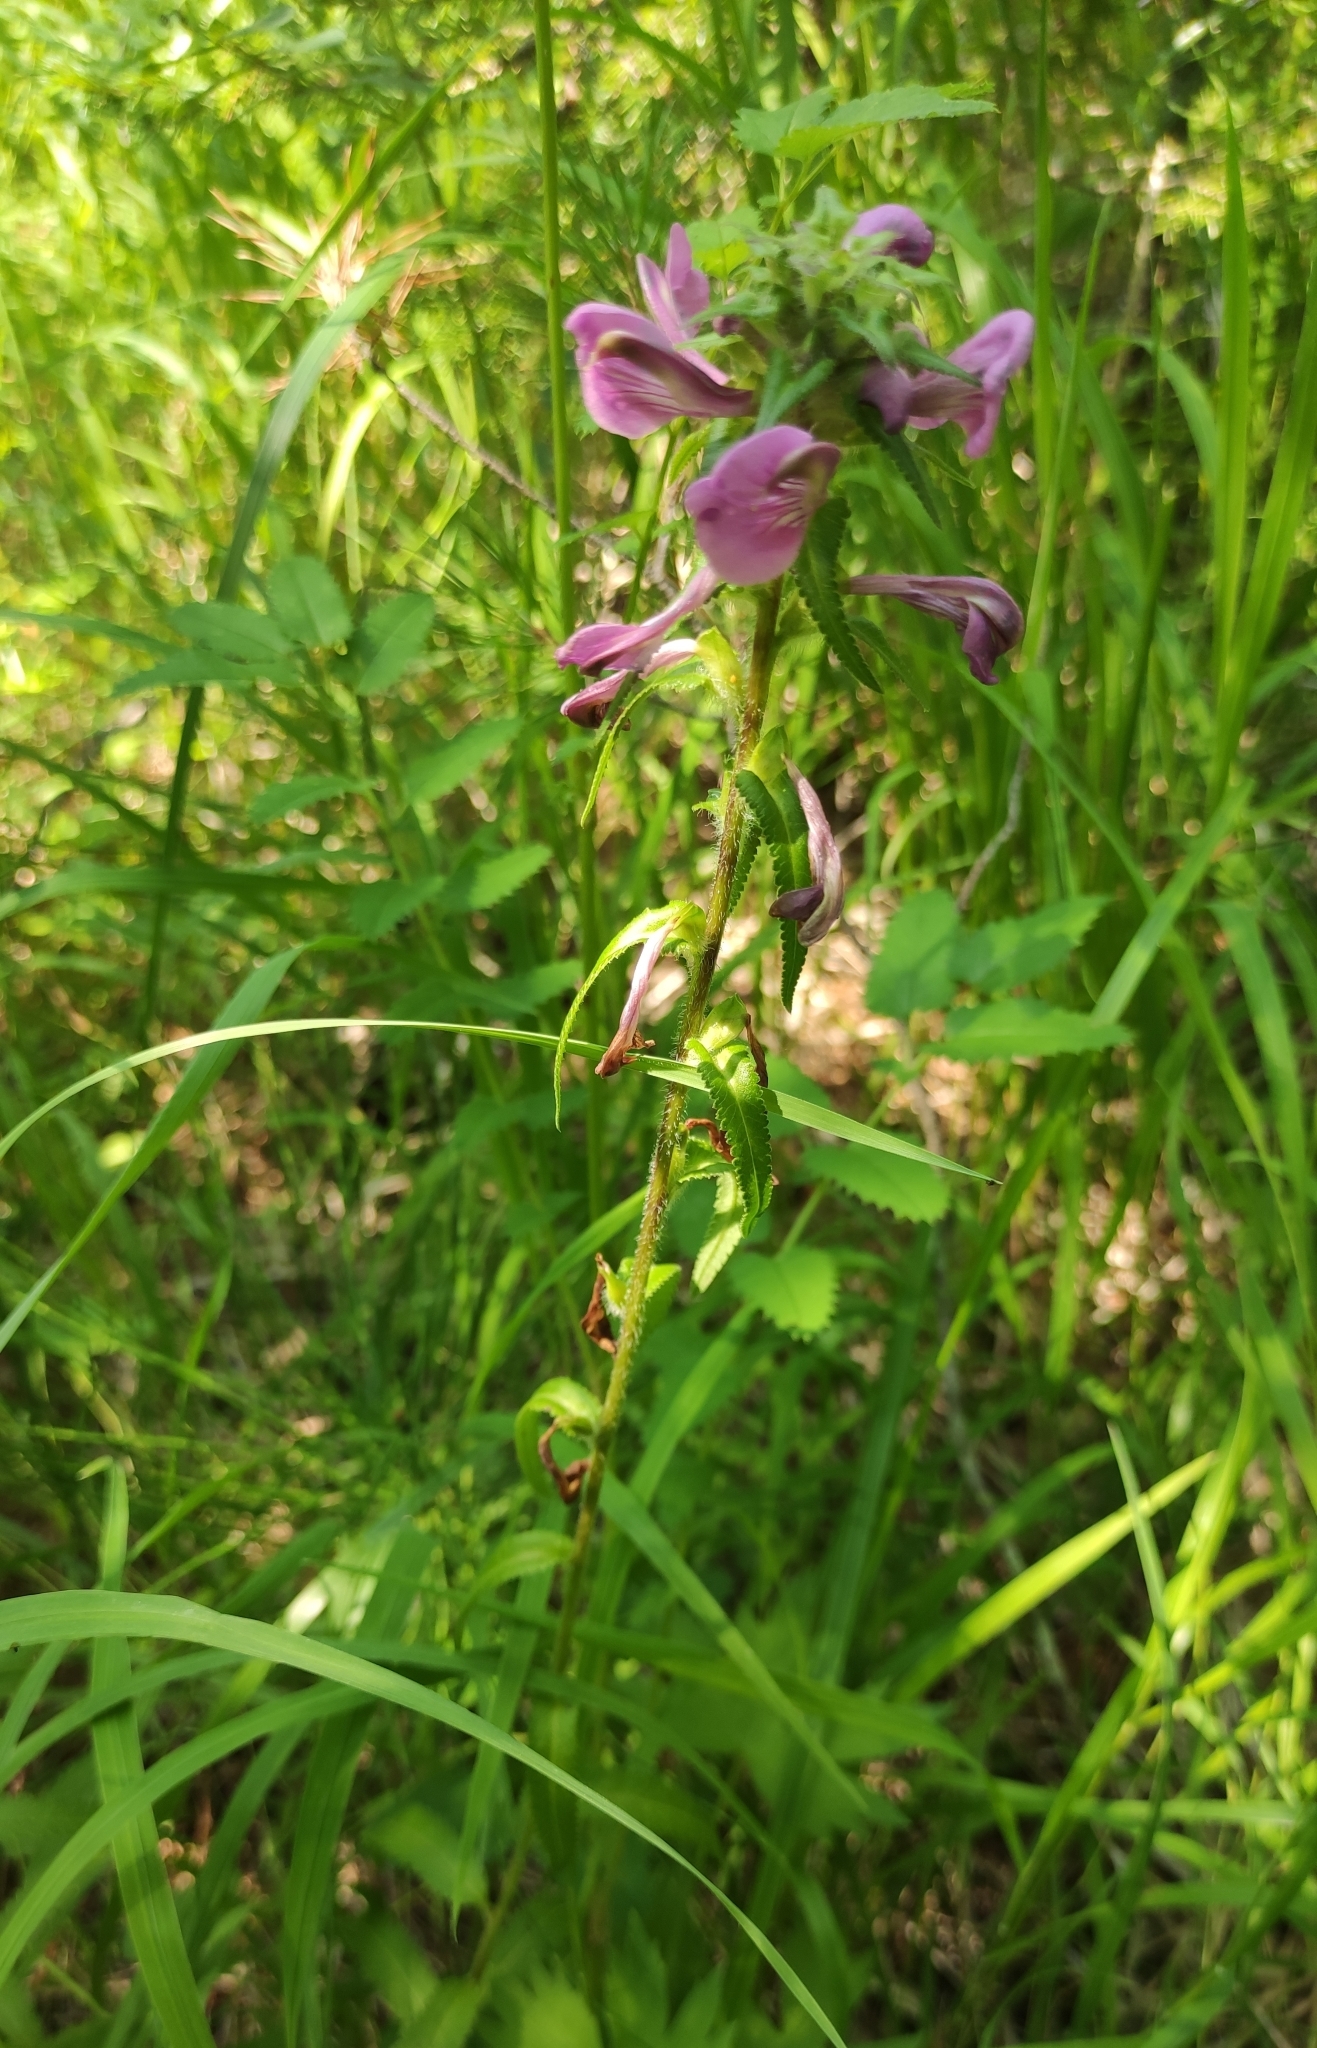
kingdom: Plantae
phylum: Tracheophyta
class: Magnoliopsida
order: Lamiales
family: Orobanchaceae
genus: Pedicularis
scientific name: Pedicularis resupinata
